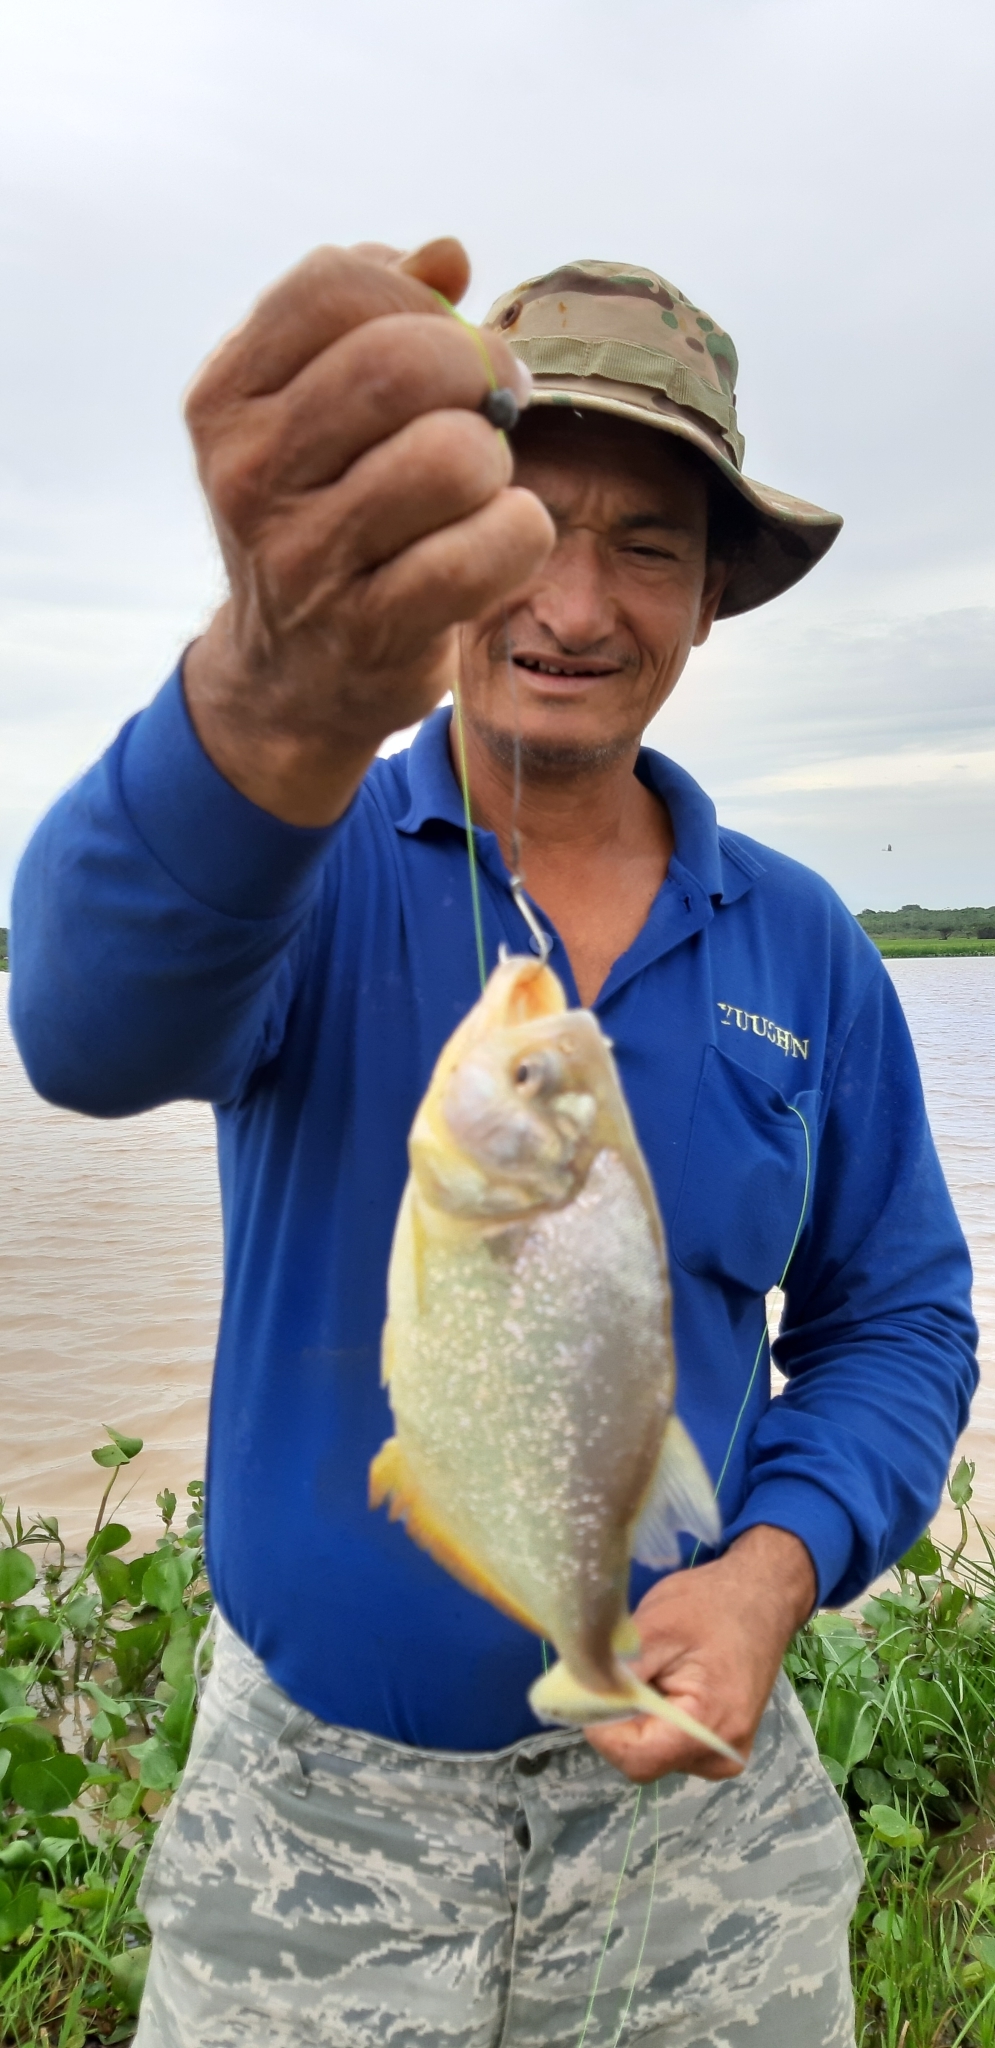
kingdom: Animalia
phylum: Chordata
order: Characiformes
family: Serrasalmidae
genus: Serrasalmus
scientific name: Serrasalmus maculatus
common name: Speckled piranha
